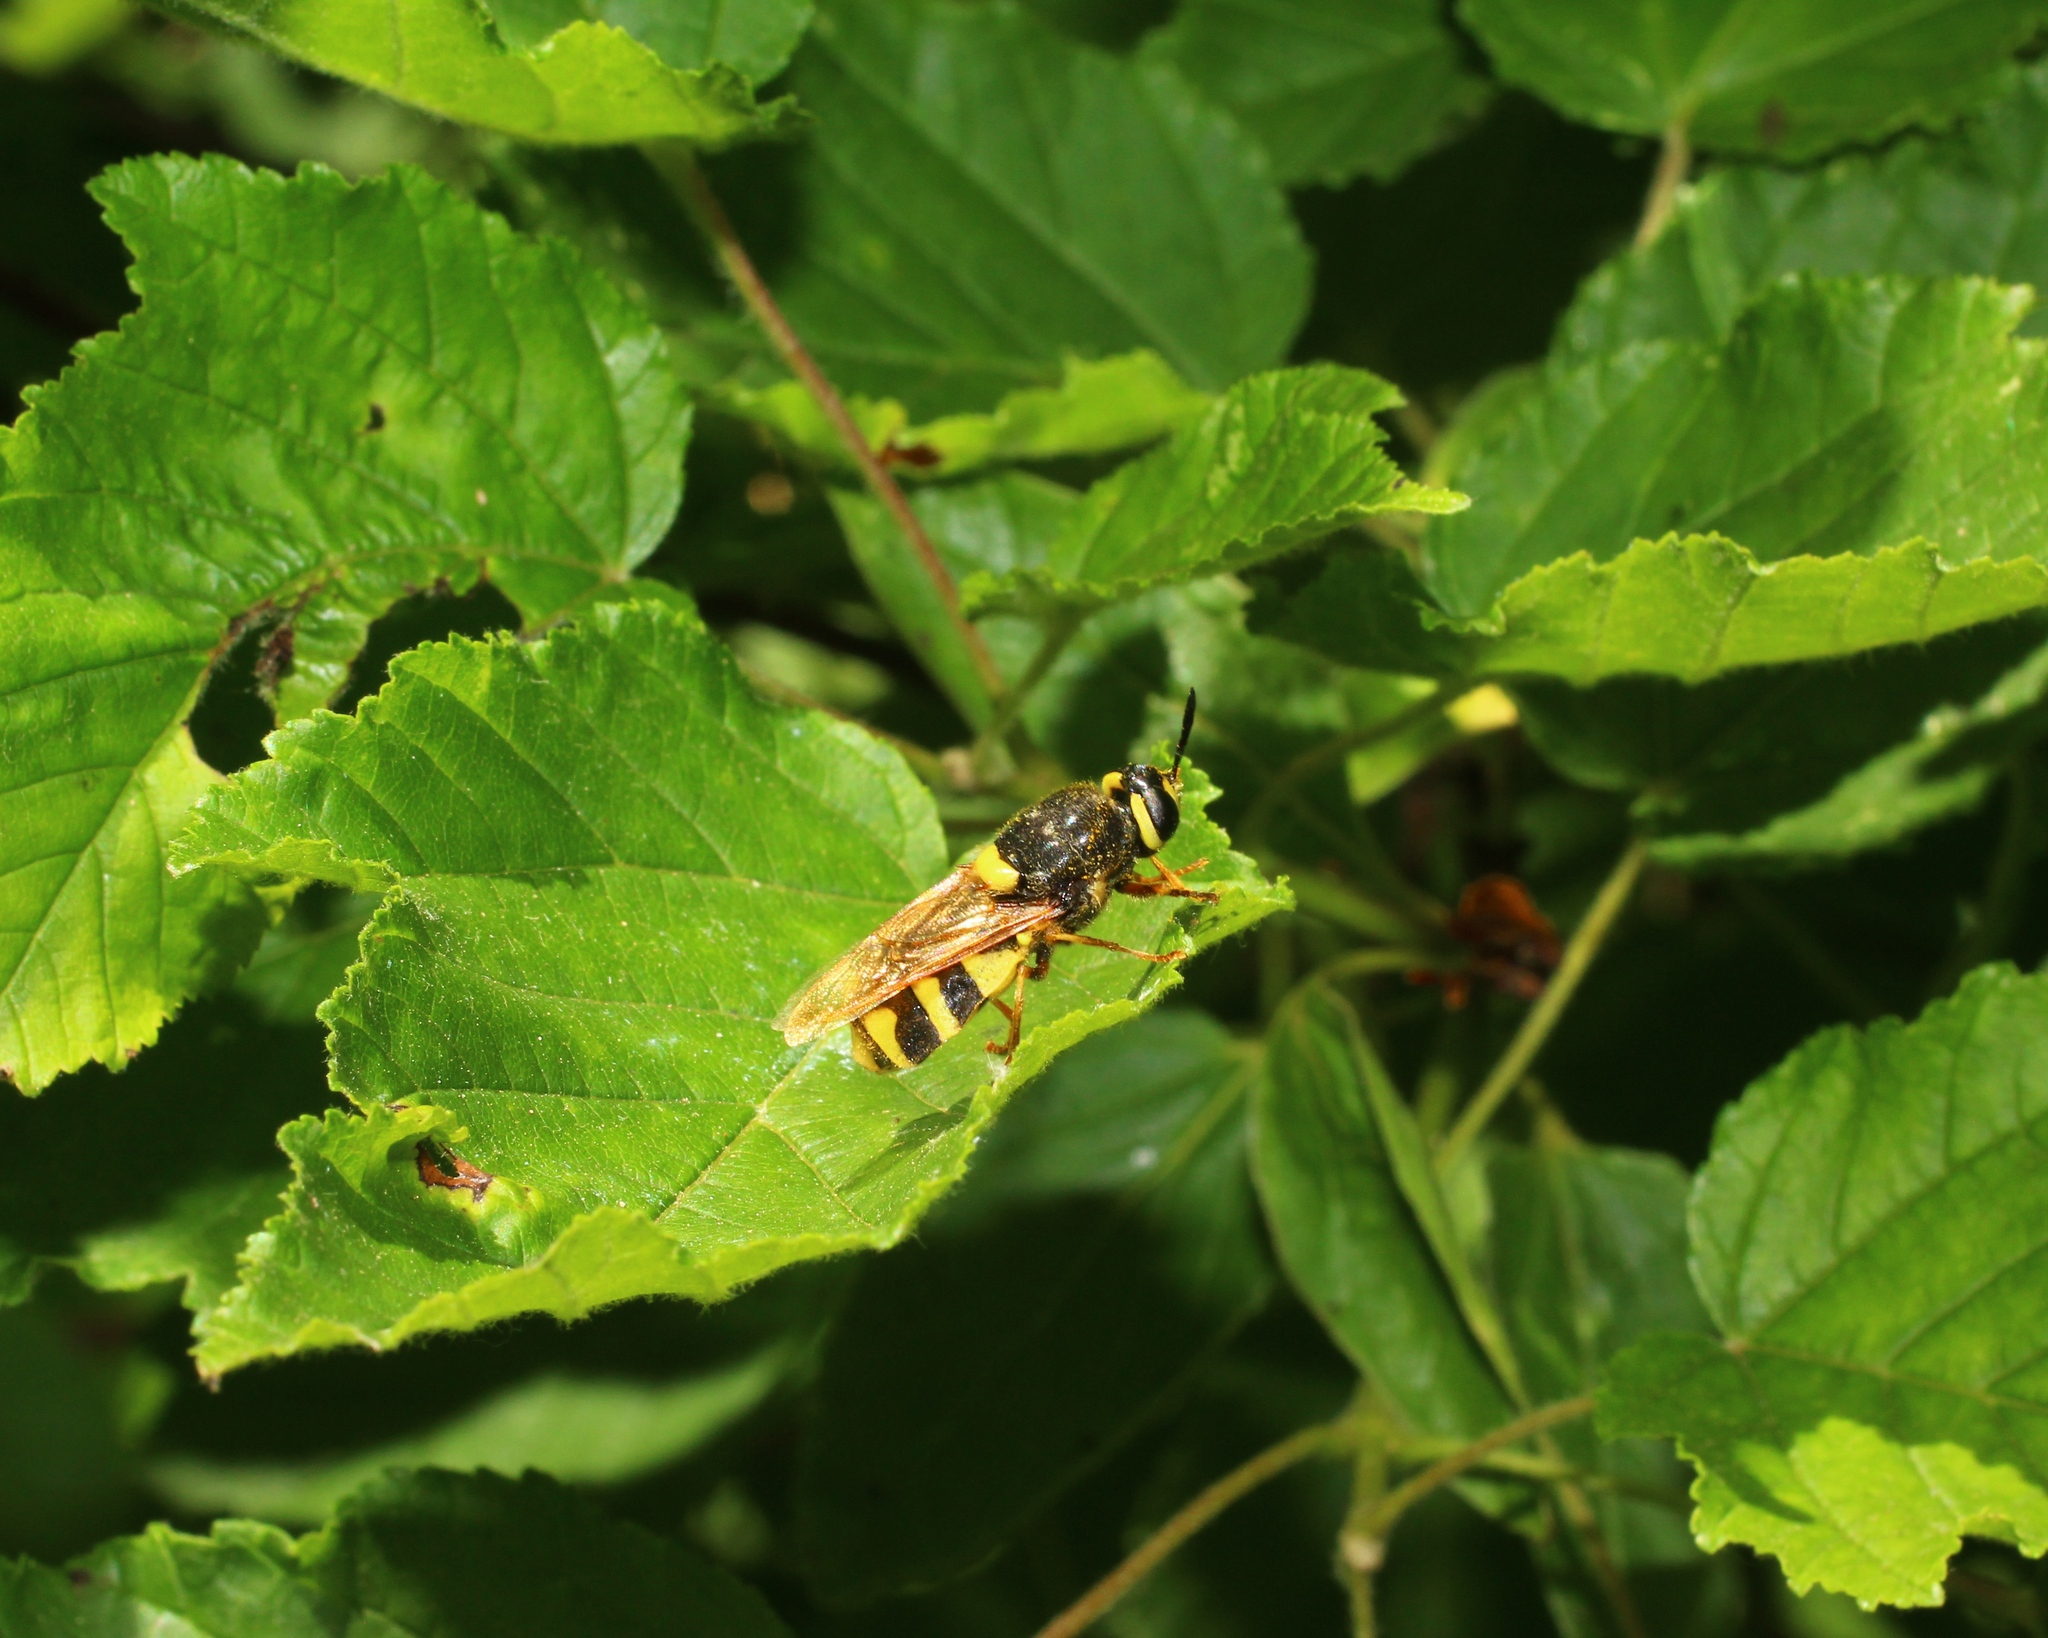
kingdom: Animalia
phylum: Arthropoda
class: Insecta
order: Diptera
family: Stratiomyidae
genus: Stratiomys
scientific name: Stratiomys chamaeleon
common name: Clubbed general
